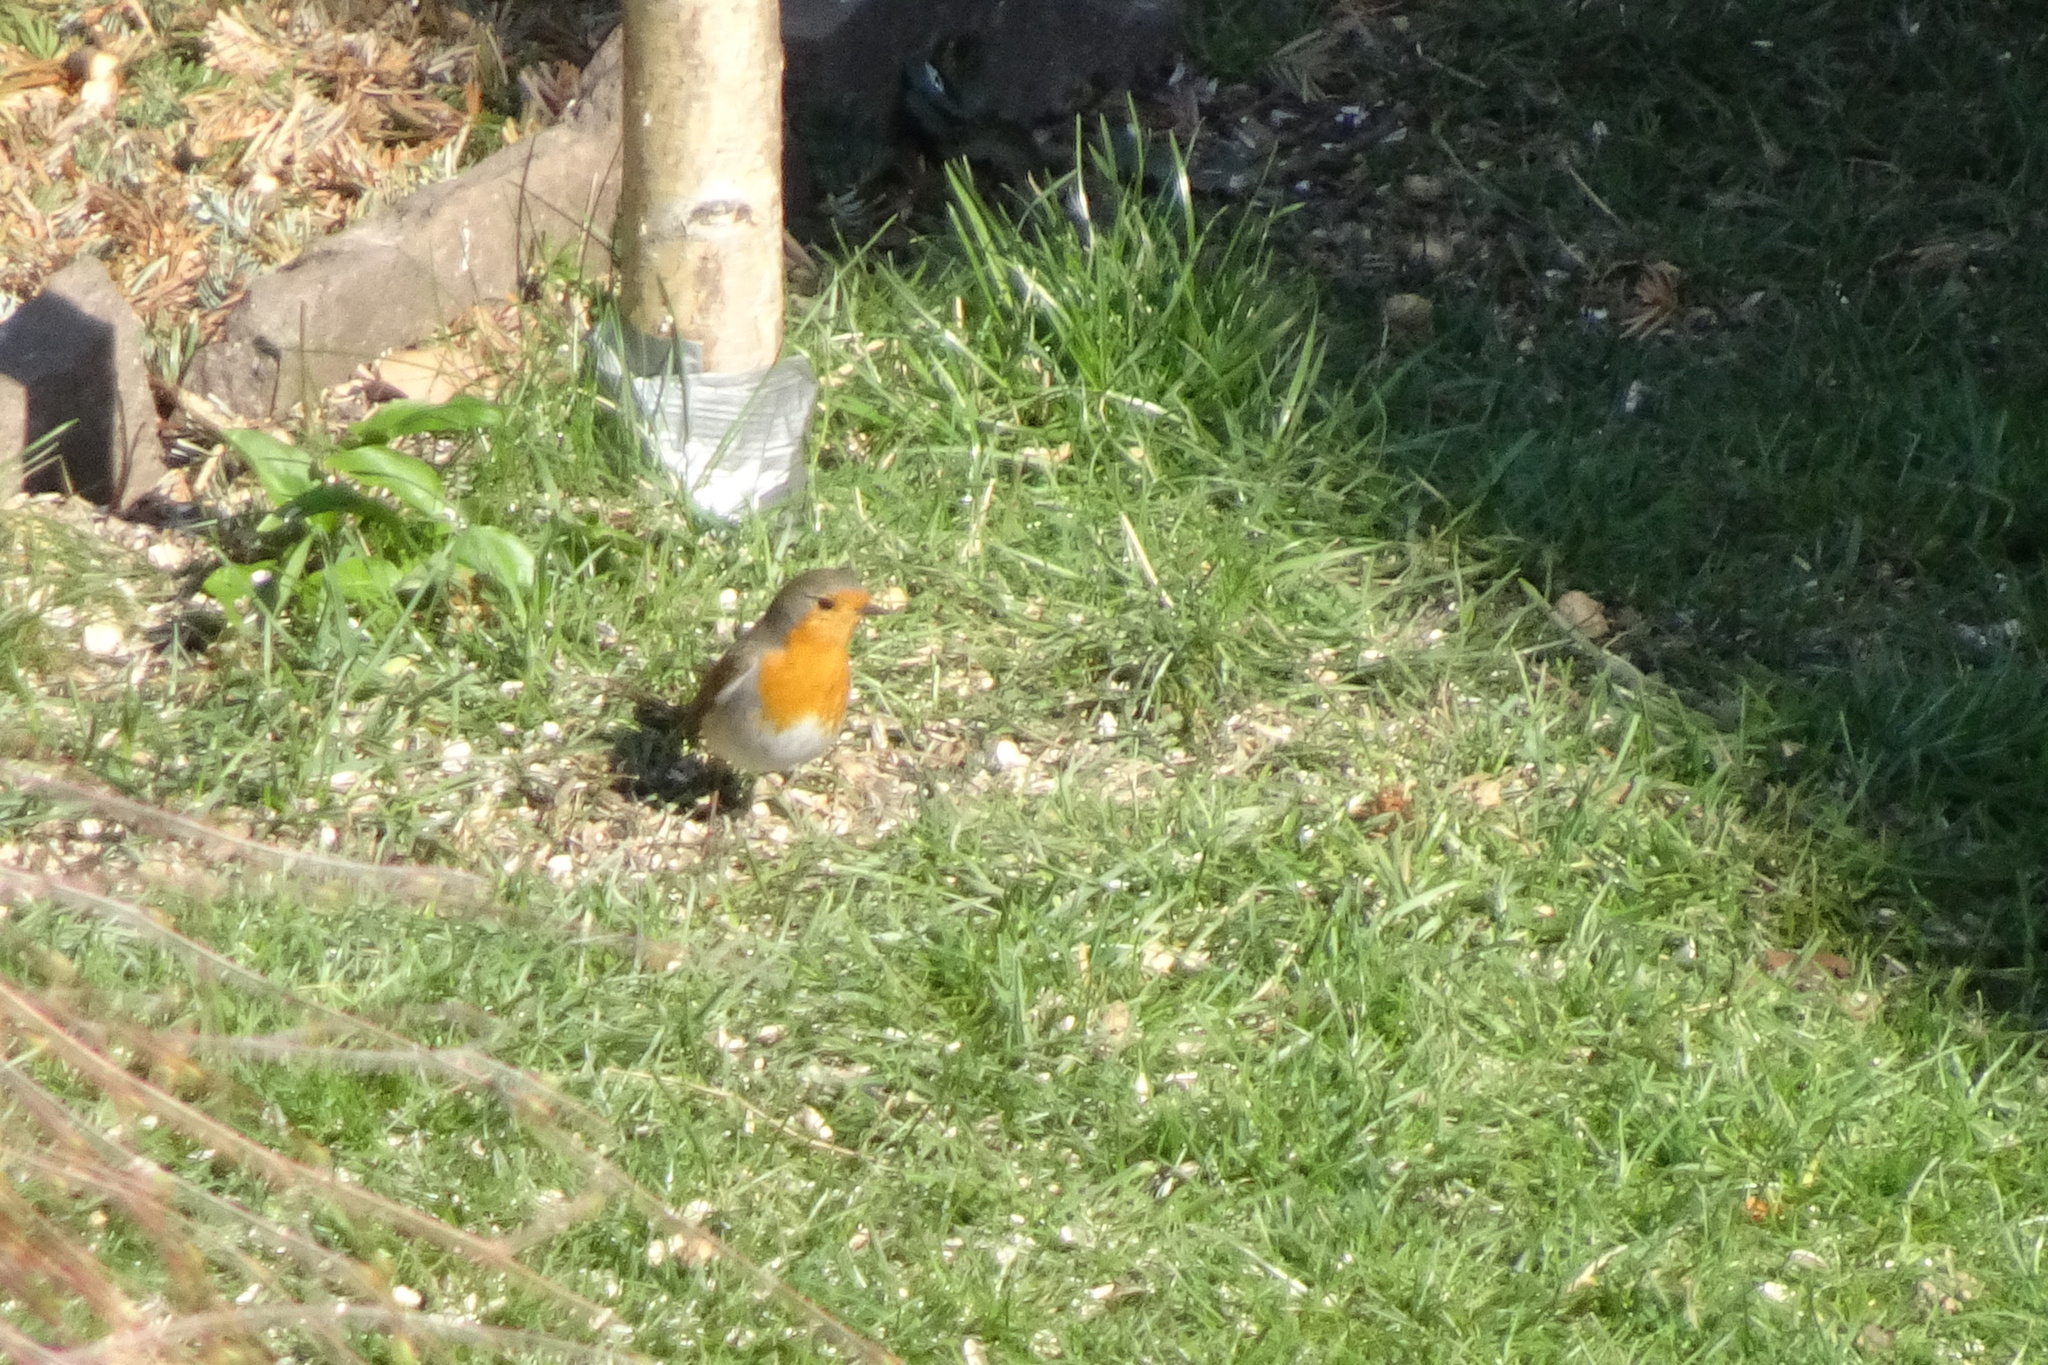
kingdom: Animalia
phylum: Chordata
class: Aves
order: Passeriformes
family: Muscicapidae
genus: Erithacus
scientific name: Erithacus rubecula
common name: European robin
